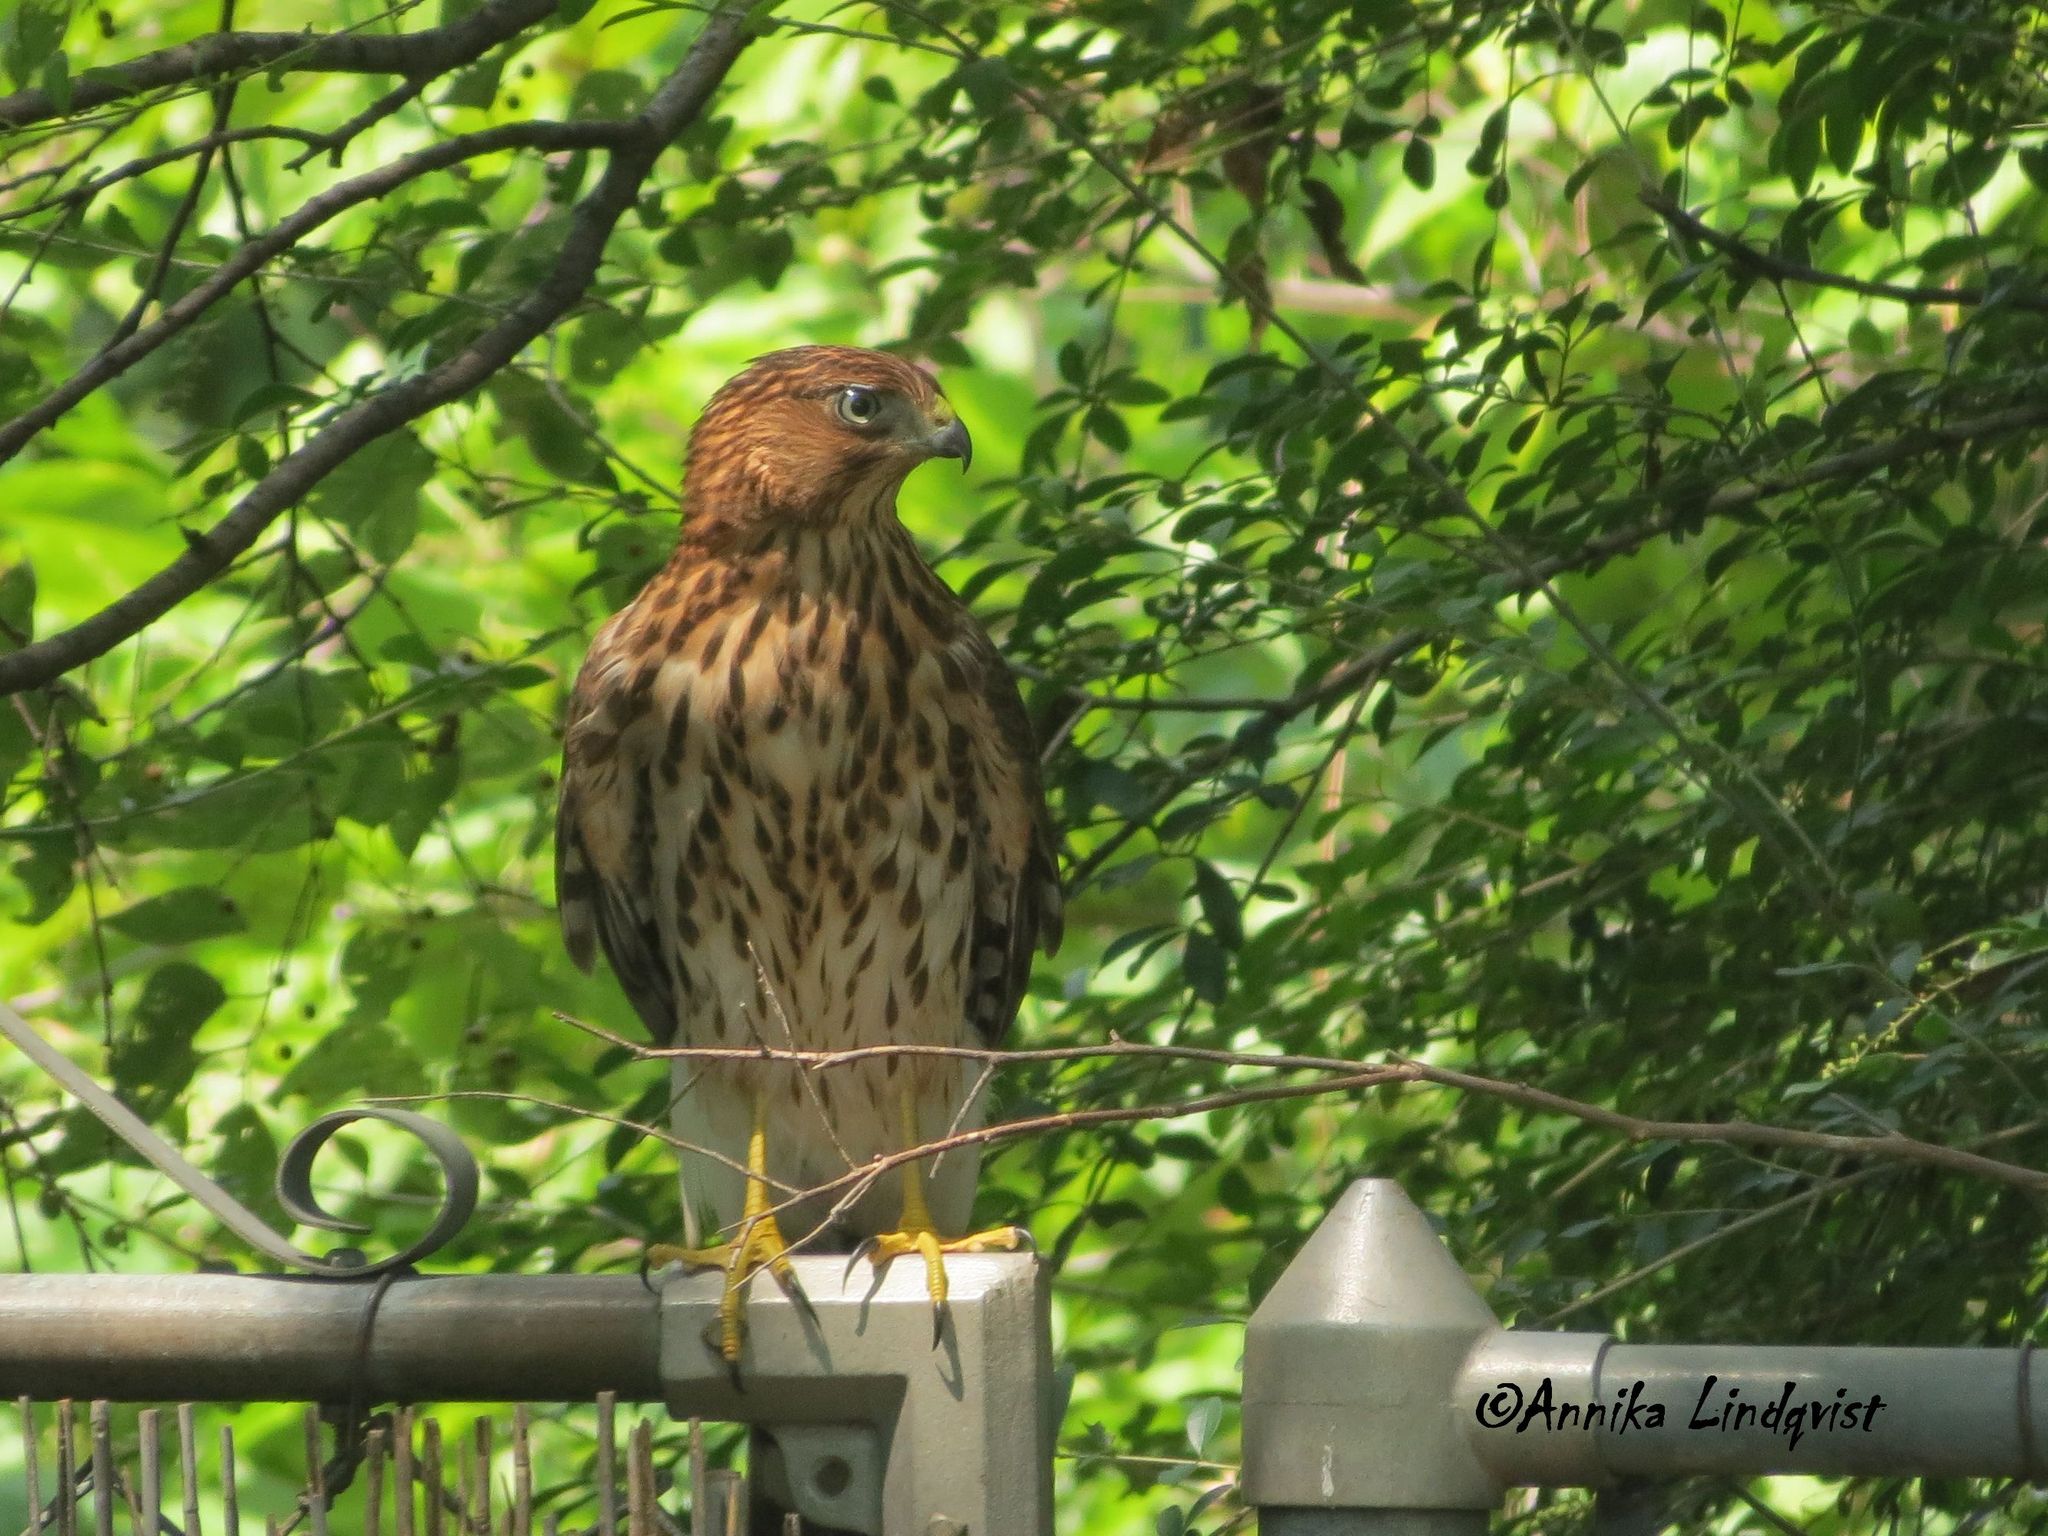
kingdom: Animalia
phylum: Chordata
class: Aves
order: Accipitriformes
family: Accipitridae
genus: Accipiter
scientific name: Accipiter cooperii
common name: Cooper's hawk
